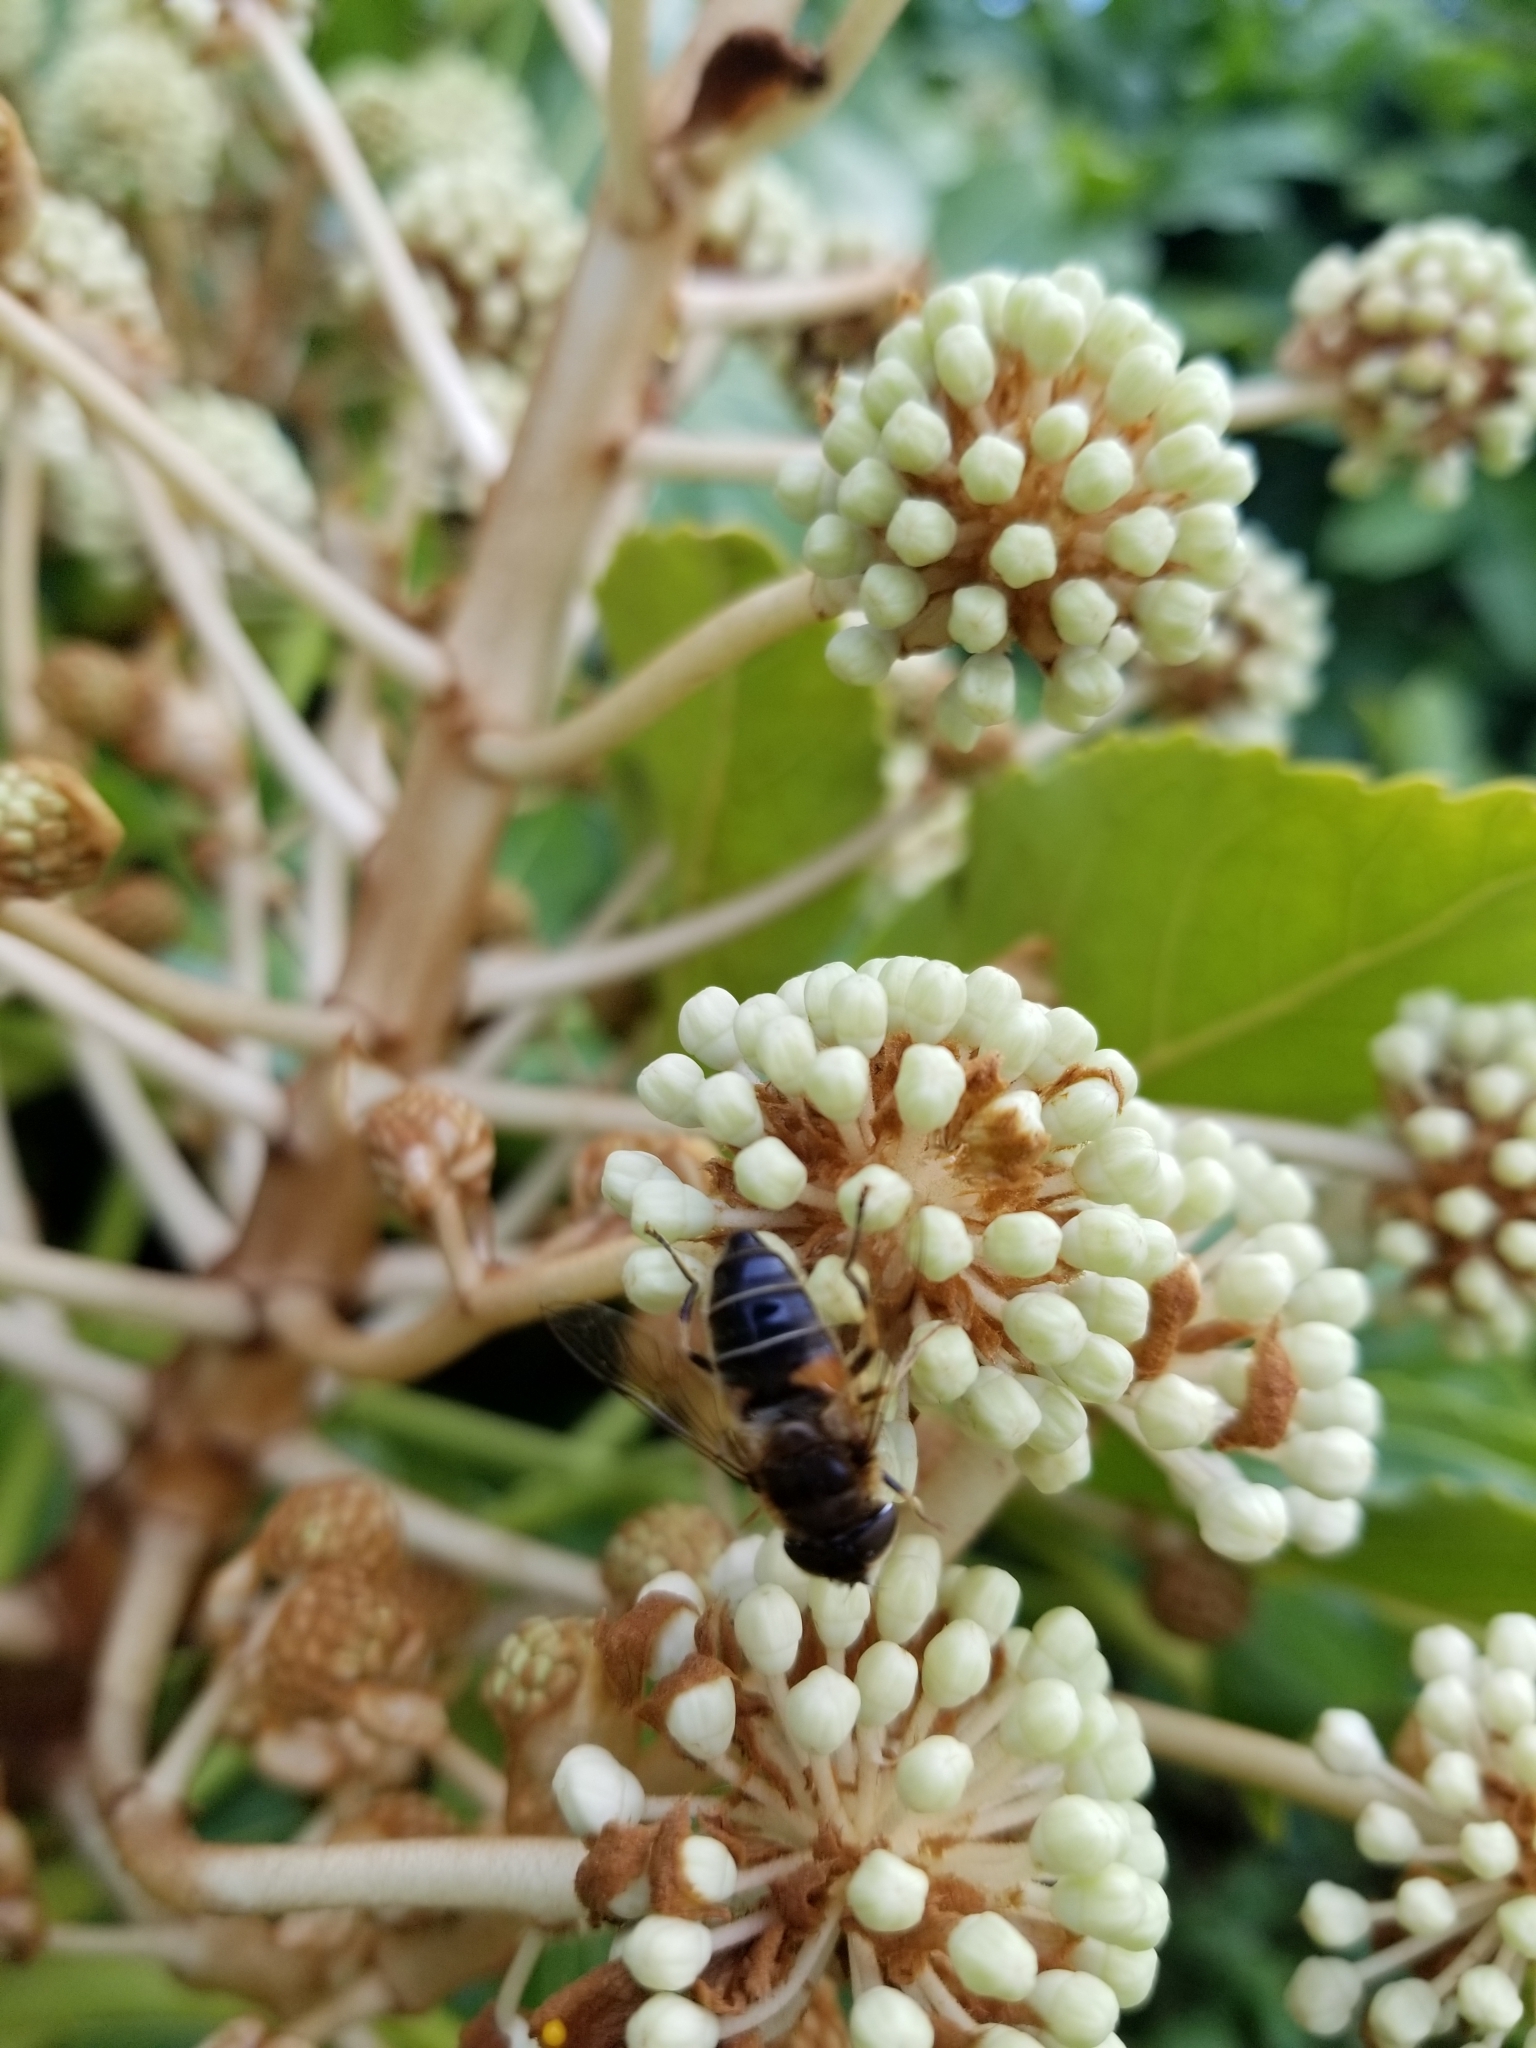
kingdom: Animalia
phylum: Arthropoda
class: Insecta
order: Diptera
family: Syrphidae
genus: Eristalis
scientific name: Eristalis pertinax
